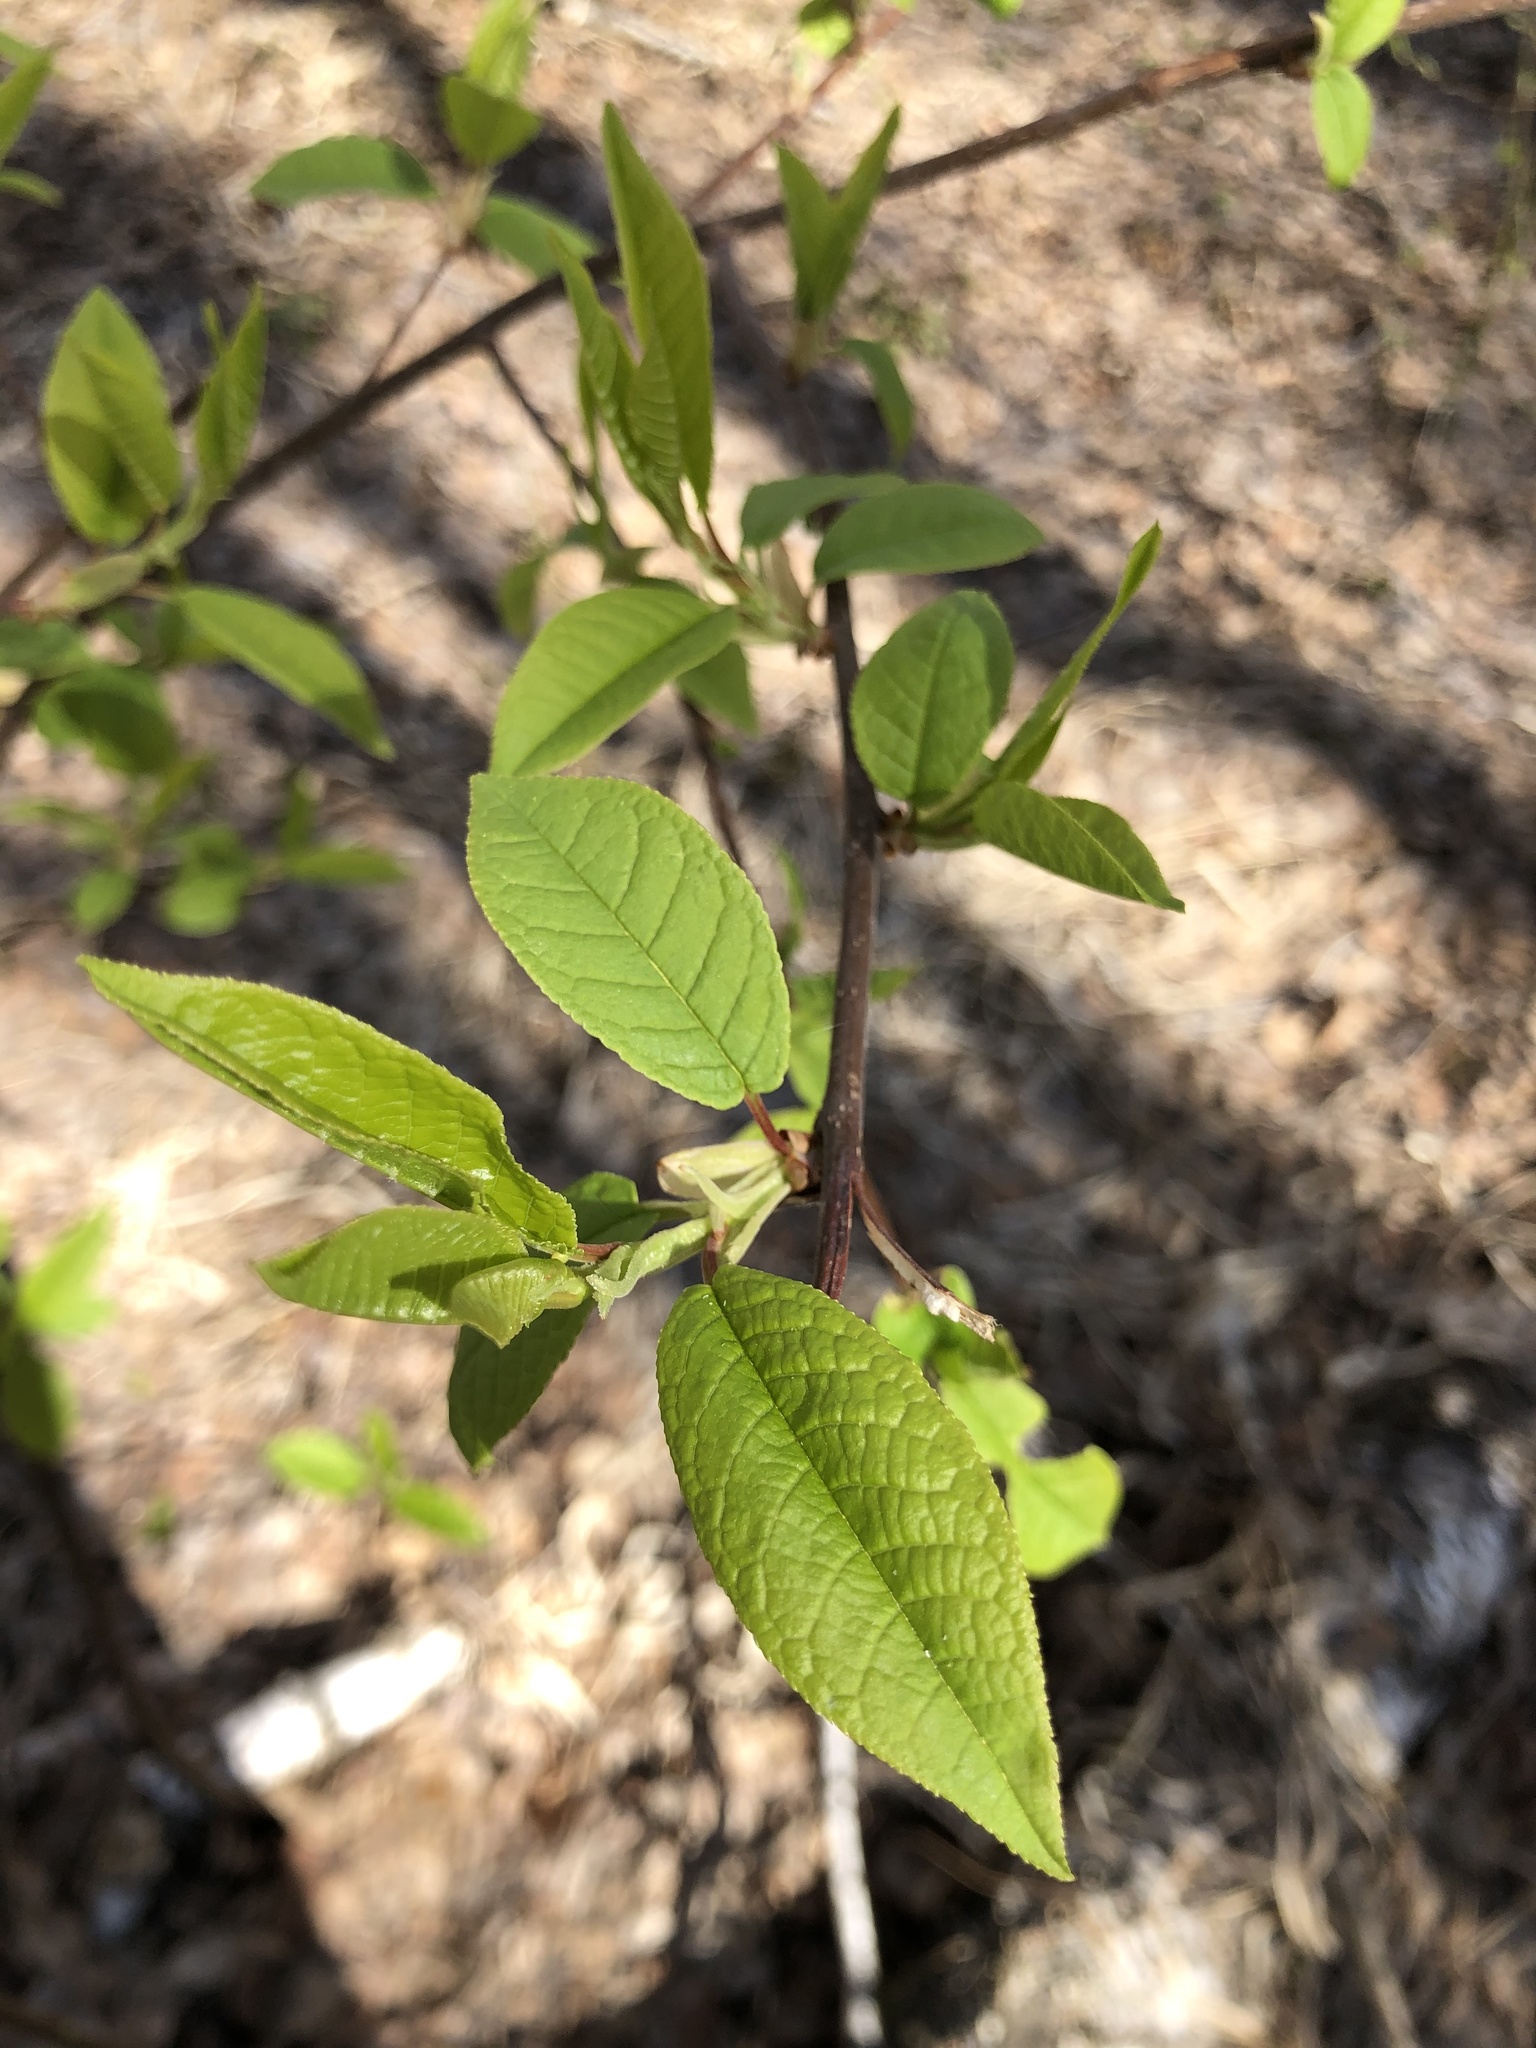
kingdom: Plantae
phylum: Tracheophyta
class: Magnoliopsida
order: Rosales
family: Rosaceae
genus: Prunus
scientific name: Prunus padus
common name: Bird cherry
